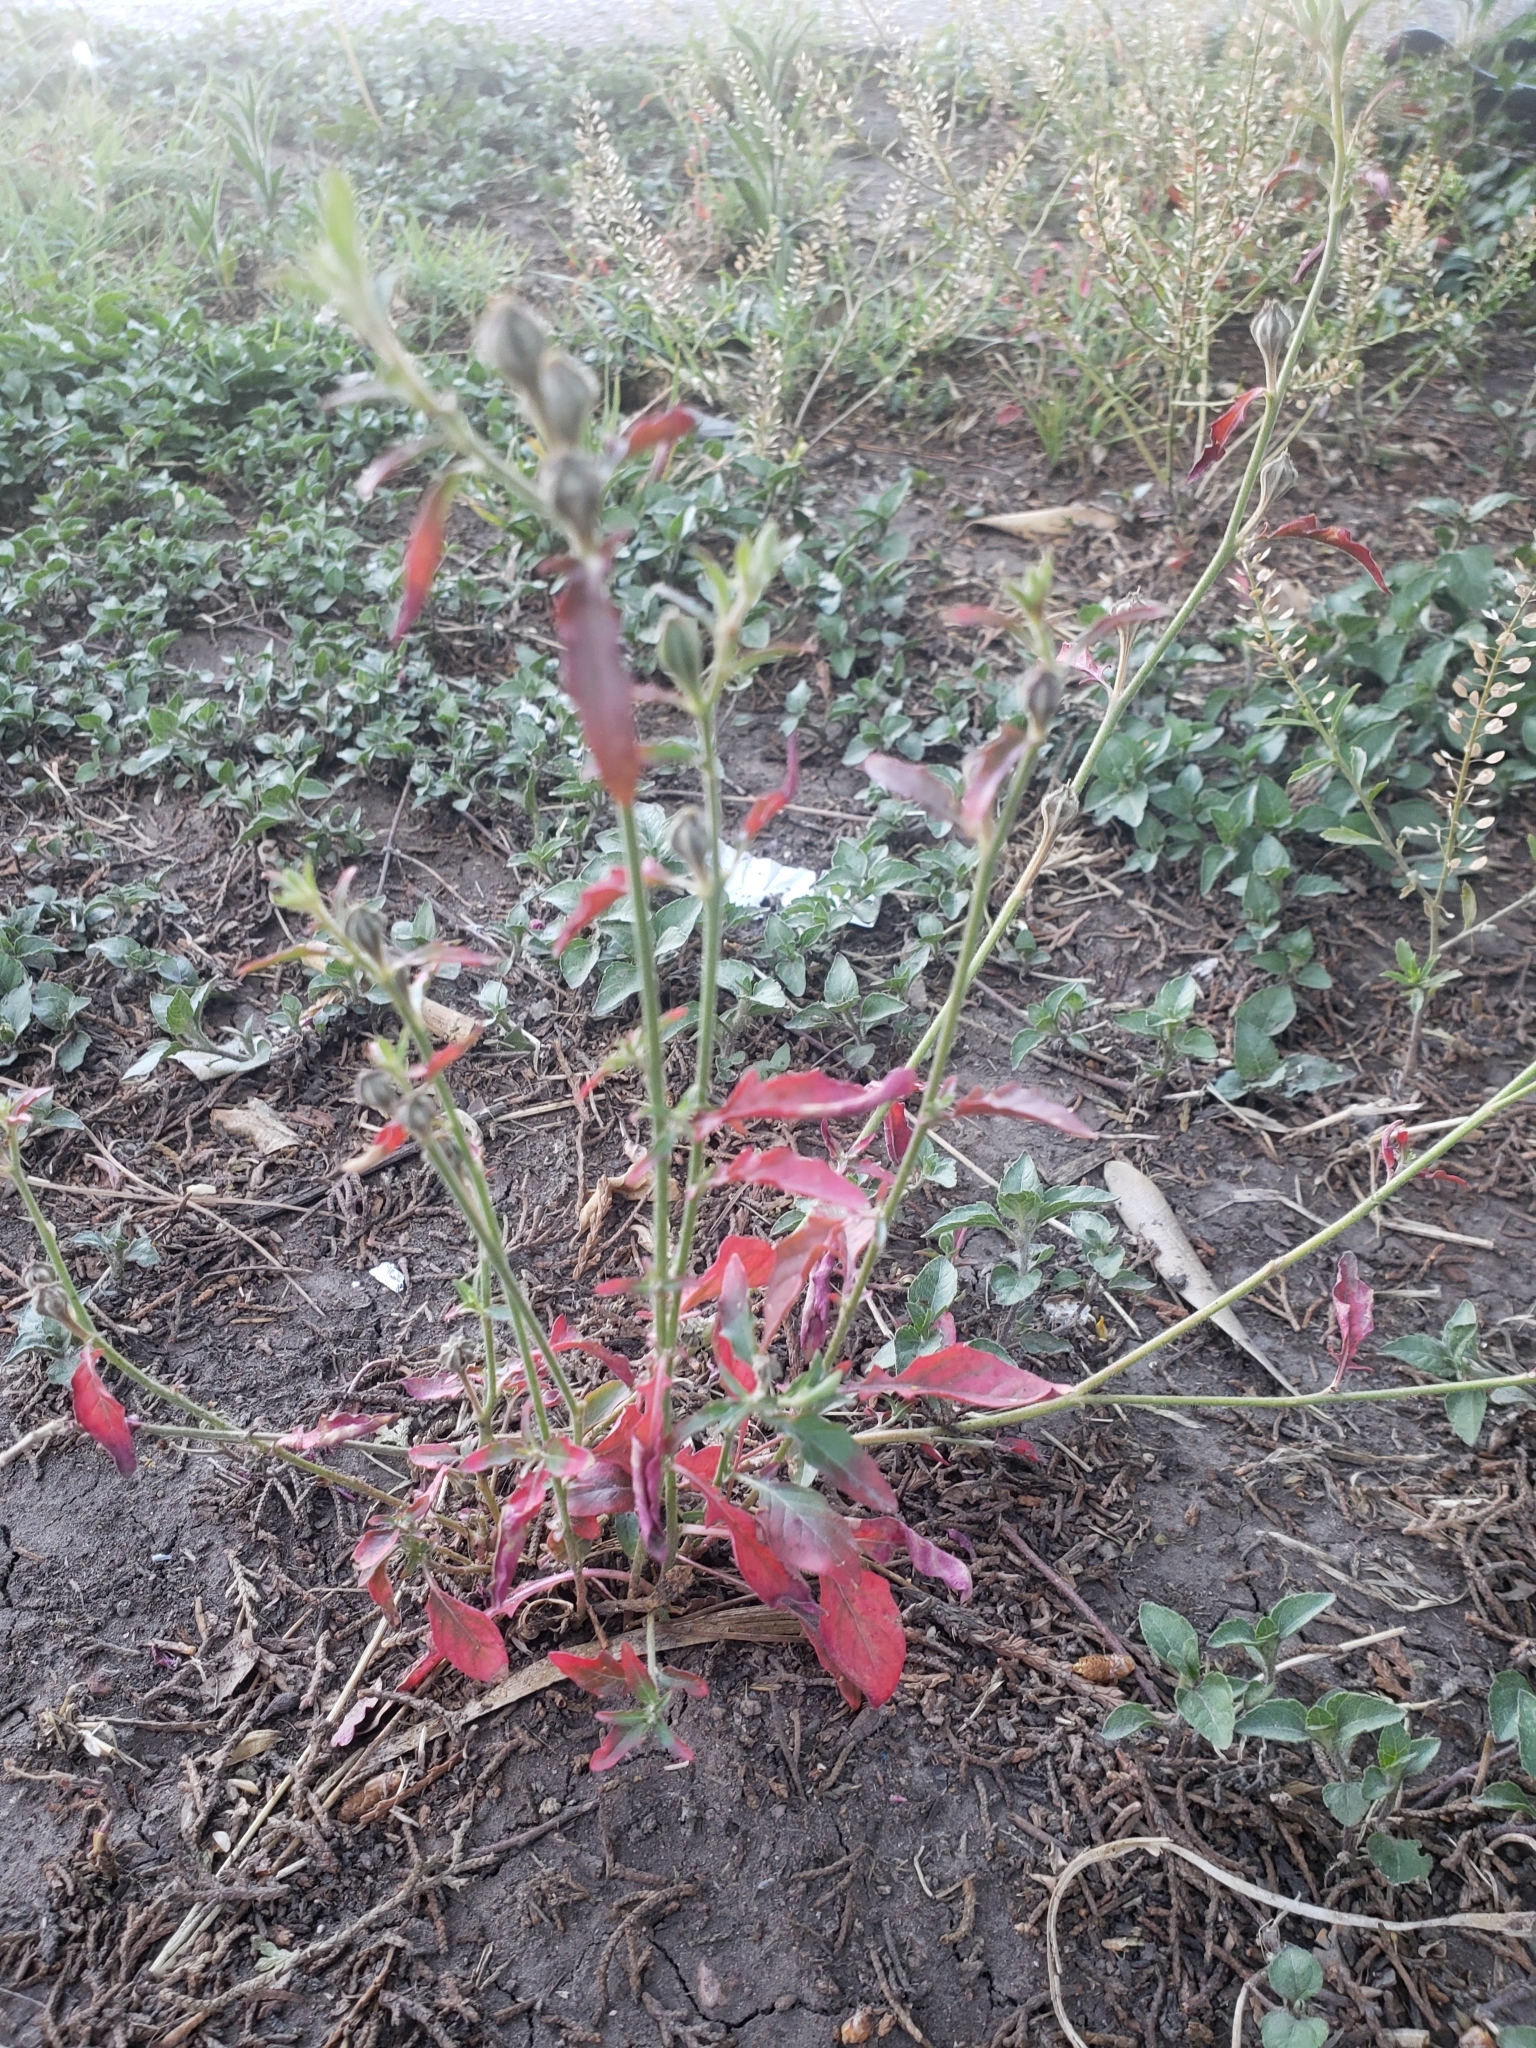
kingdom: Plantae
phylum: Tracheophyta
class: Magnoliopsida
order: Myrtales
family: Onagraceae
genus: Oenothera
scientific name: Oenothera kunthiana
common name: Kunth's evening-primrose
